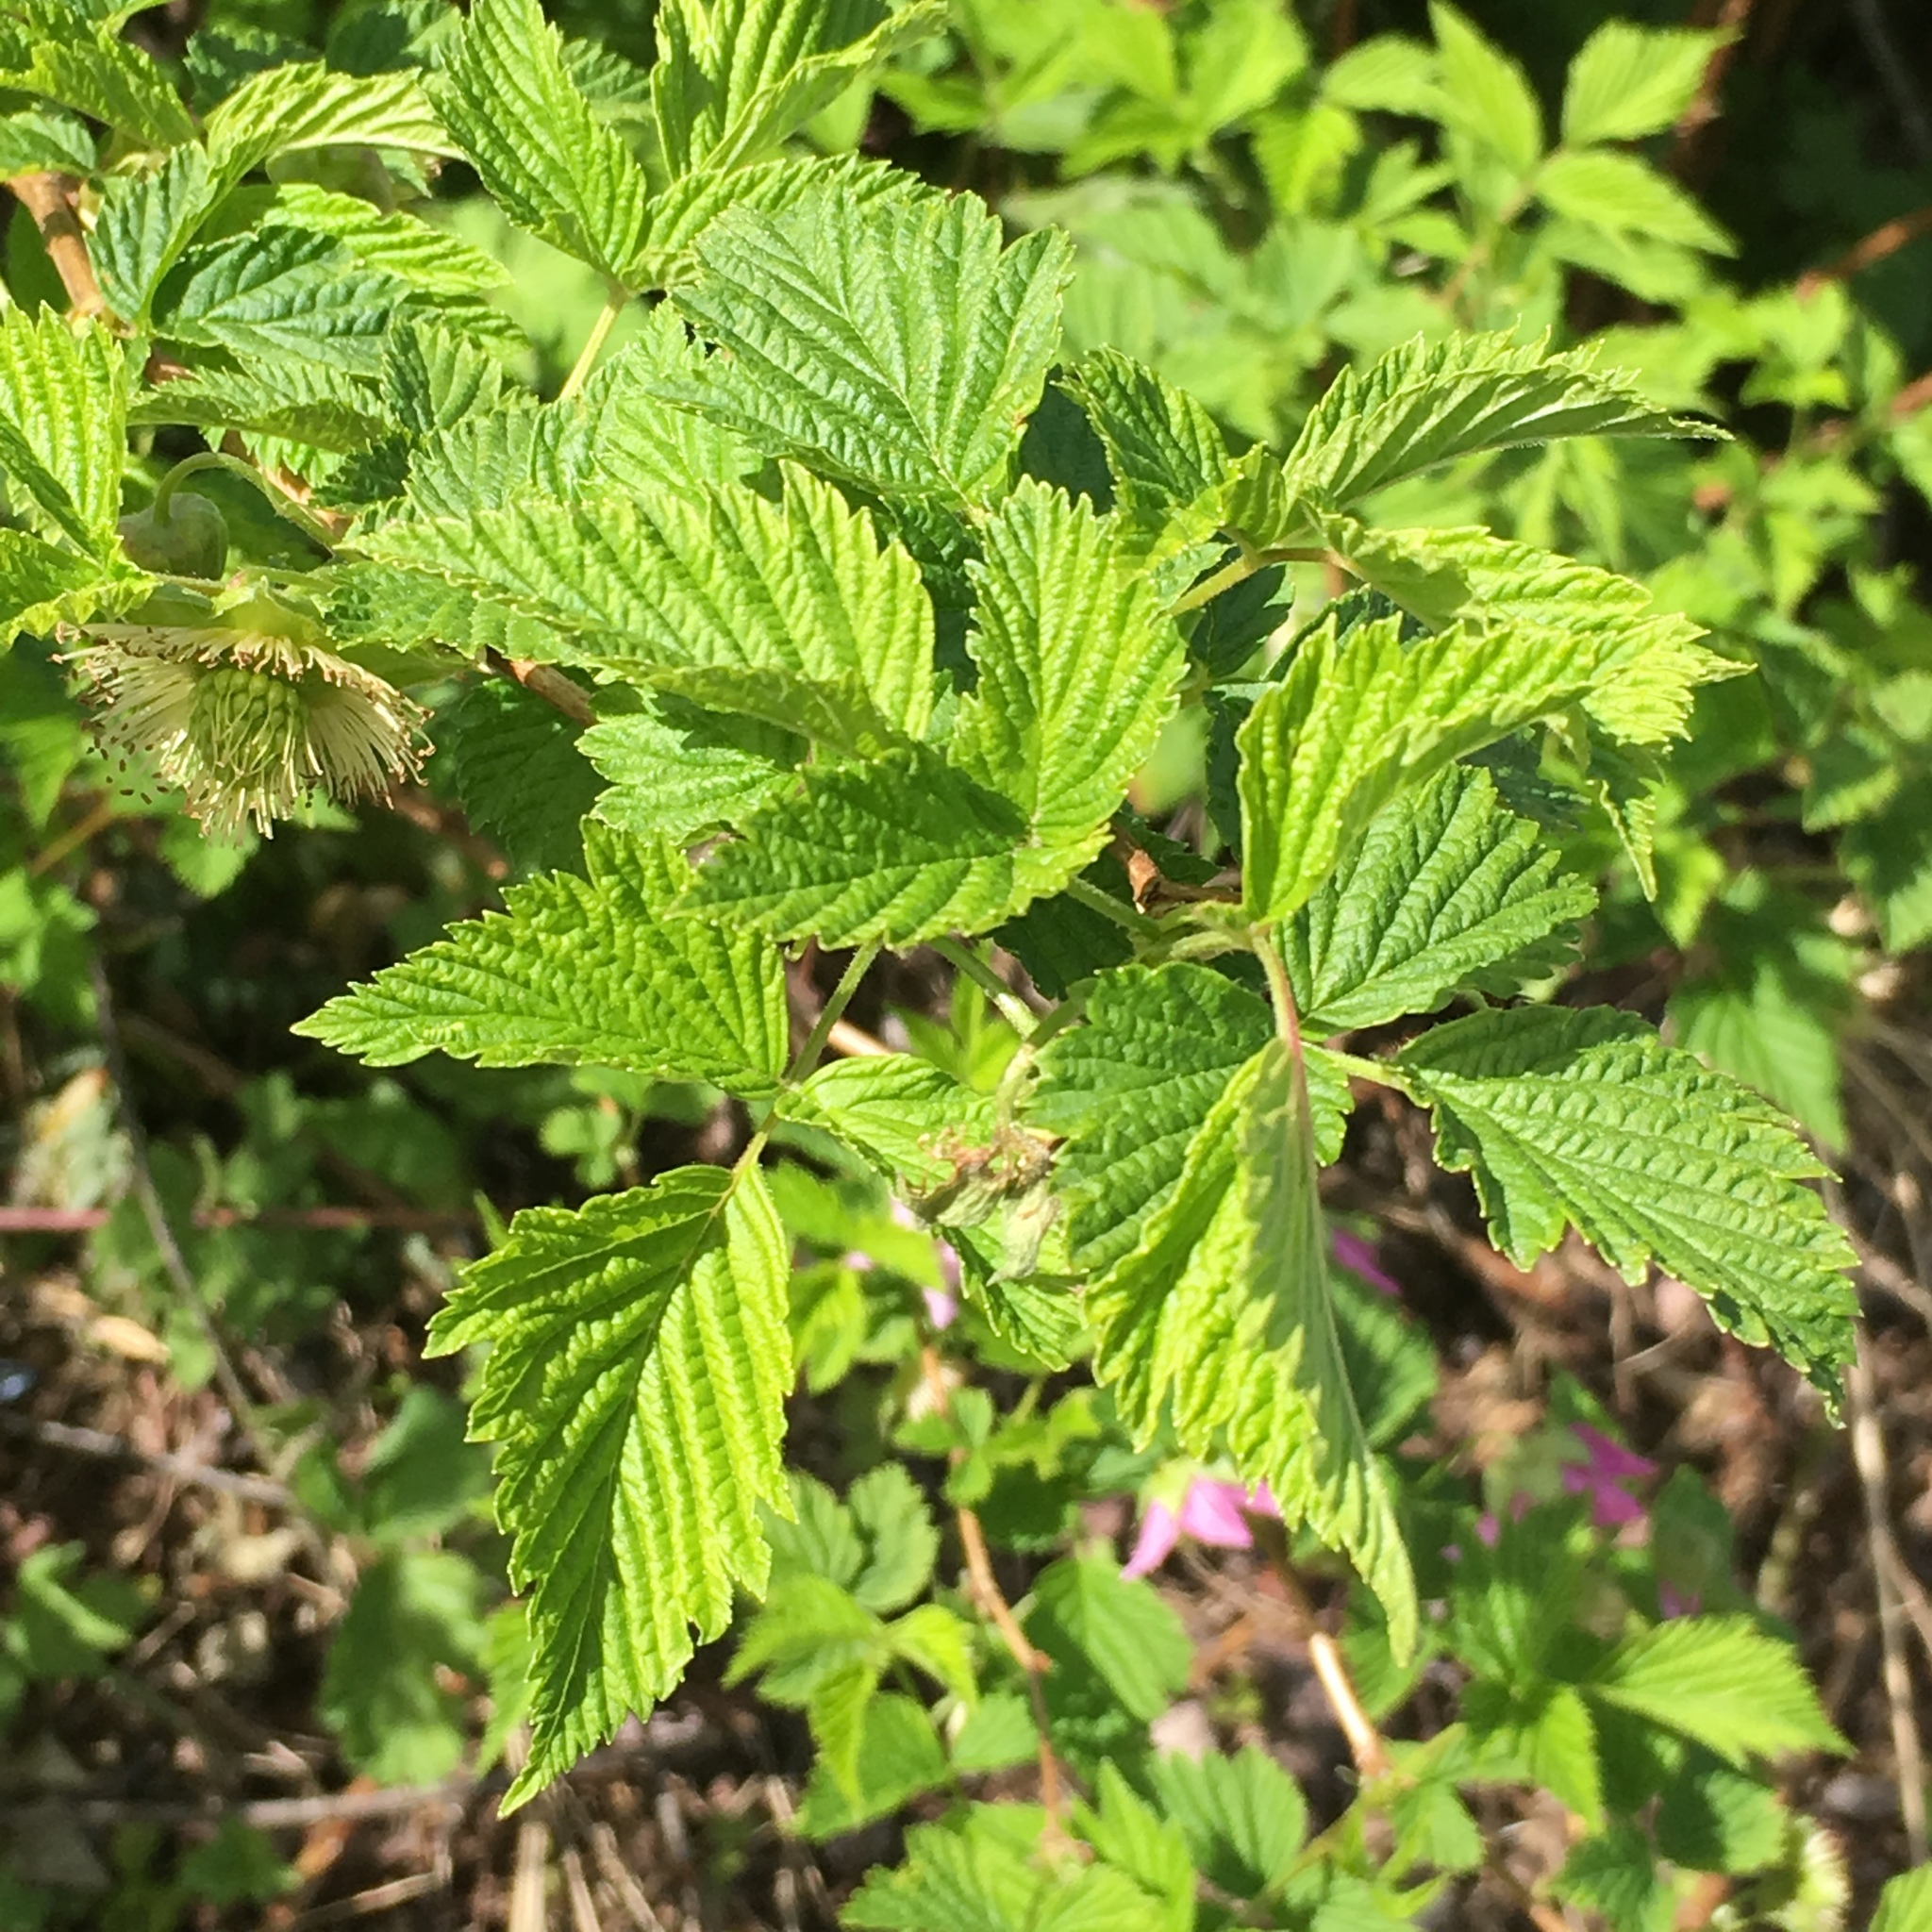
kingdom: Plantae
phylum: Tracheophyta
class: Magnoliopsida
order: Rosales
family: Rosaceae
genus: Rubus
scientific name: Rubus spectabilis
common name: Salmonberry
